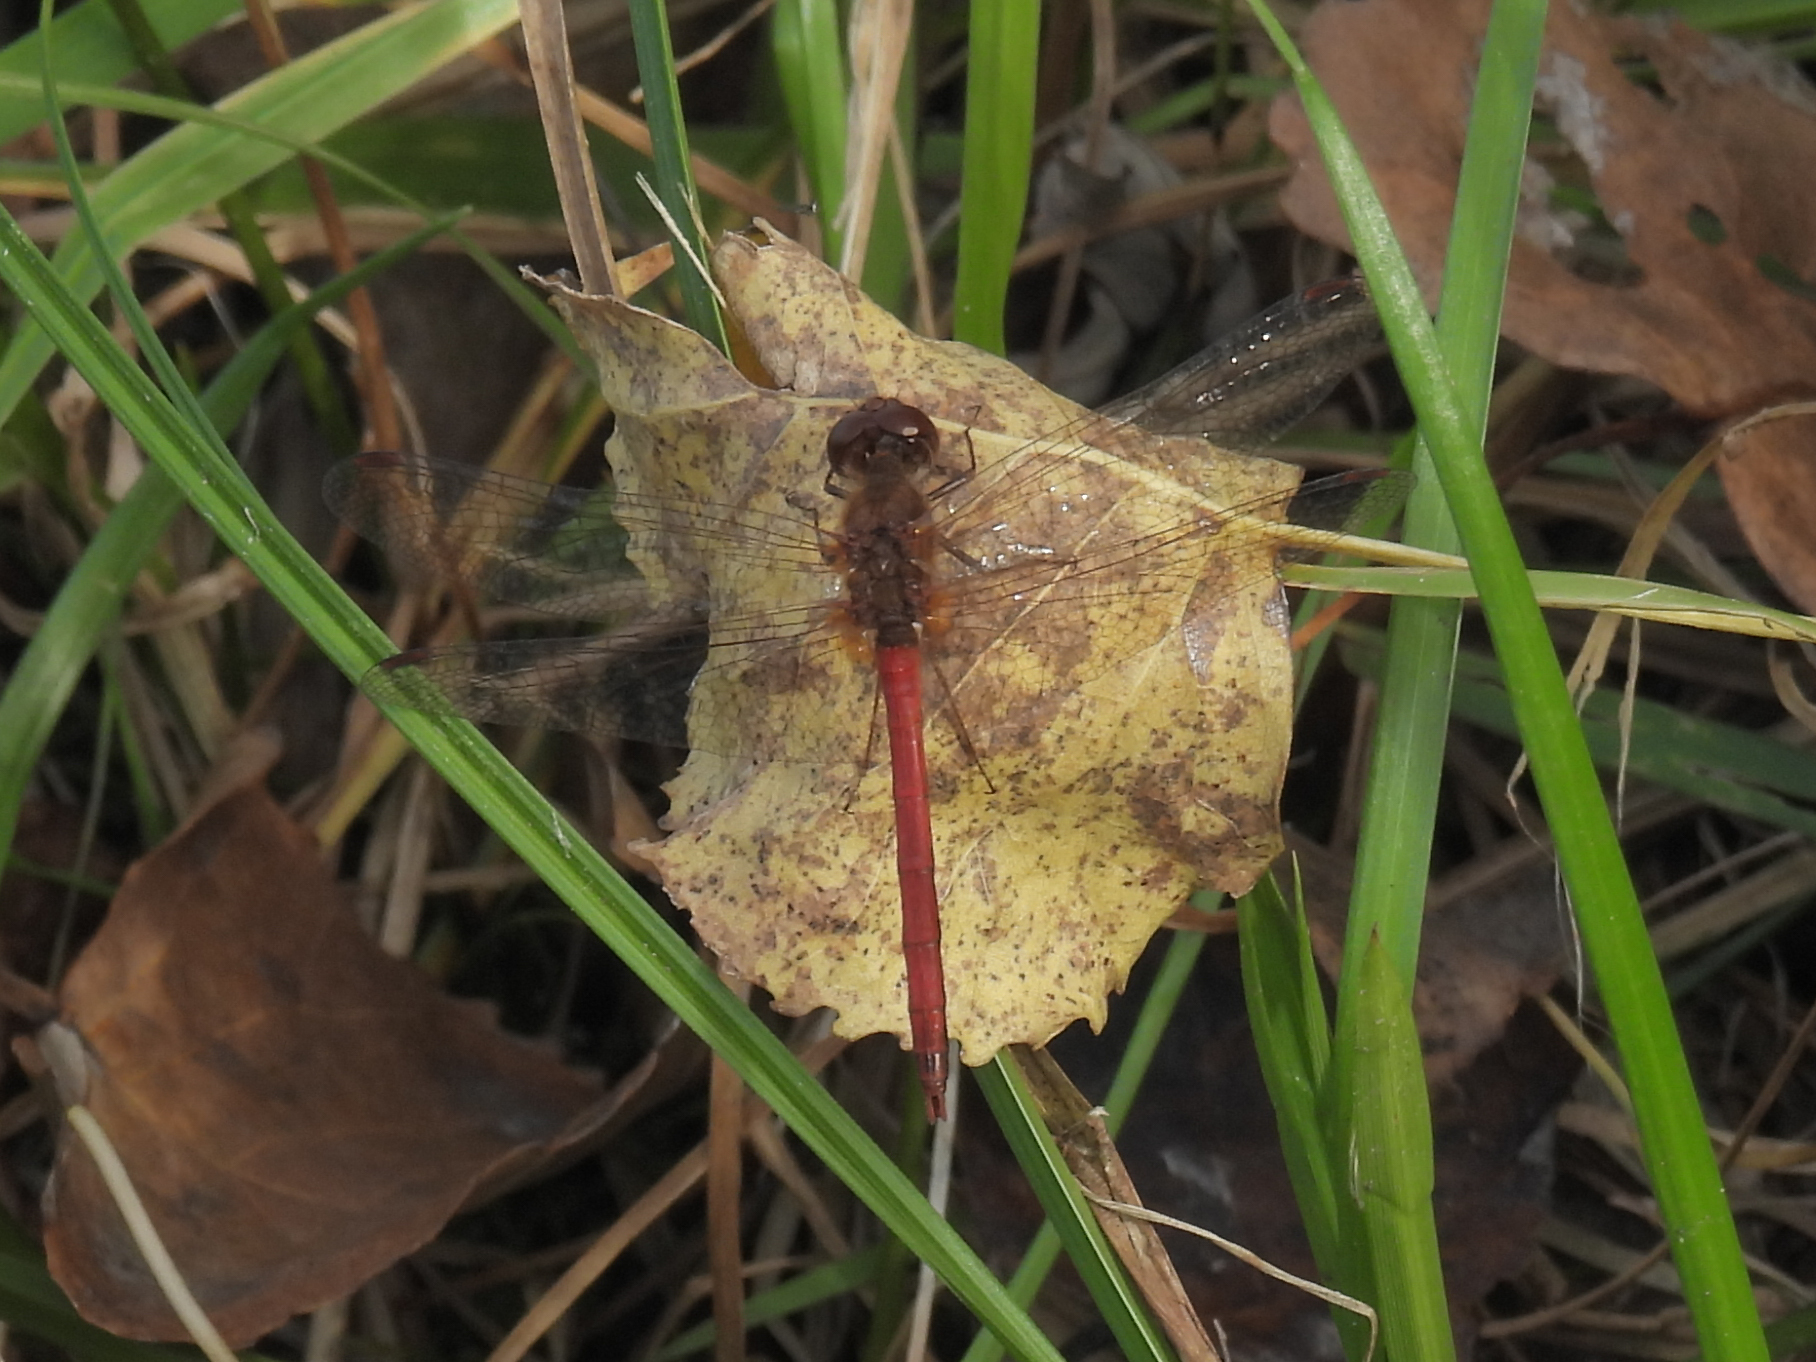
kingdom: Animalia
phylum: Arthropoda
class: Insecta
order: Odonata
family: Libellulidae
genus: Sympetrum
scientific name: Sympetrum vicinum
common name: Autumn meadowhawk
